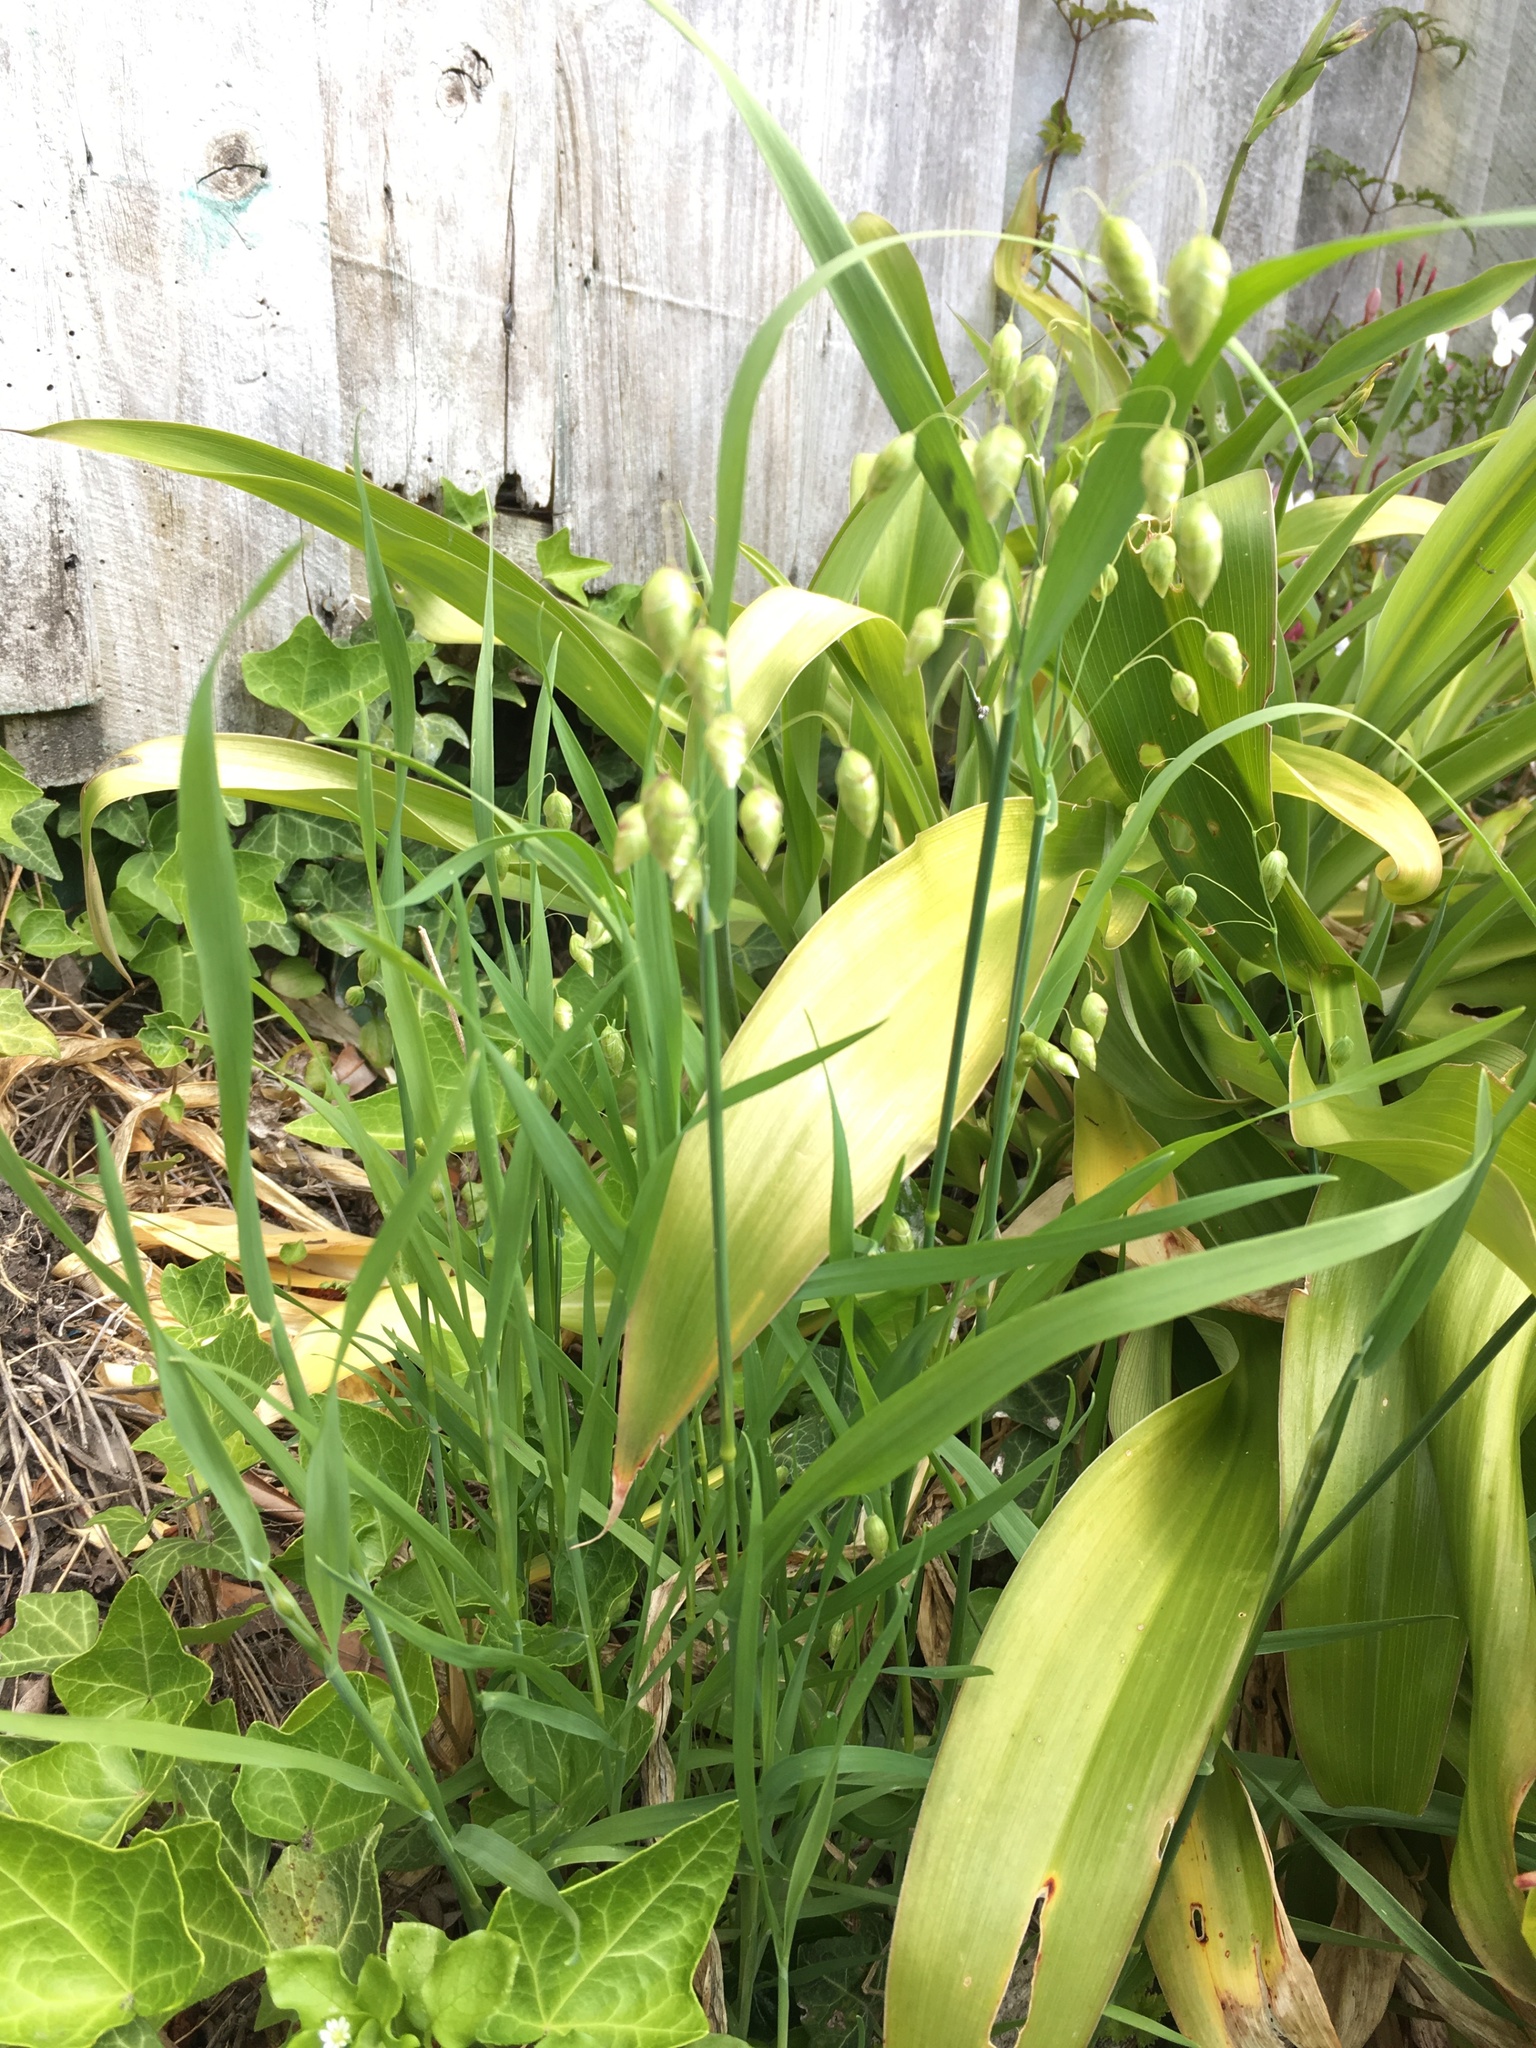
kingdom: Plantae
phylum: Tracheophyta
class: Liliopsida
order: Poales
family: Poaceae
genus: Briza
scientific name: Briza maxima
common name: Big quakinggrass
